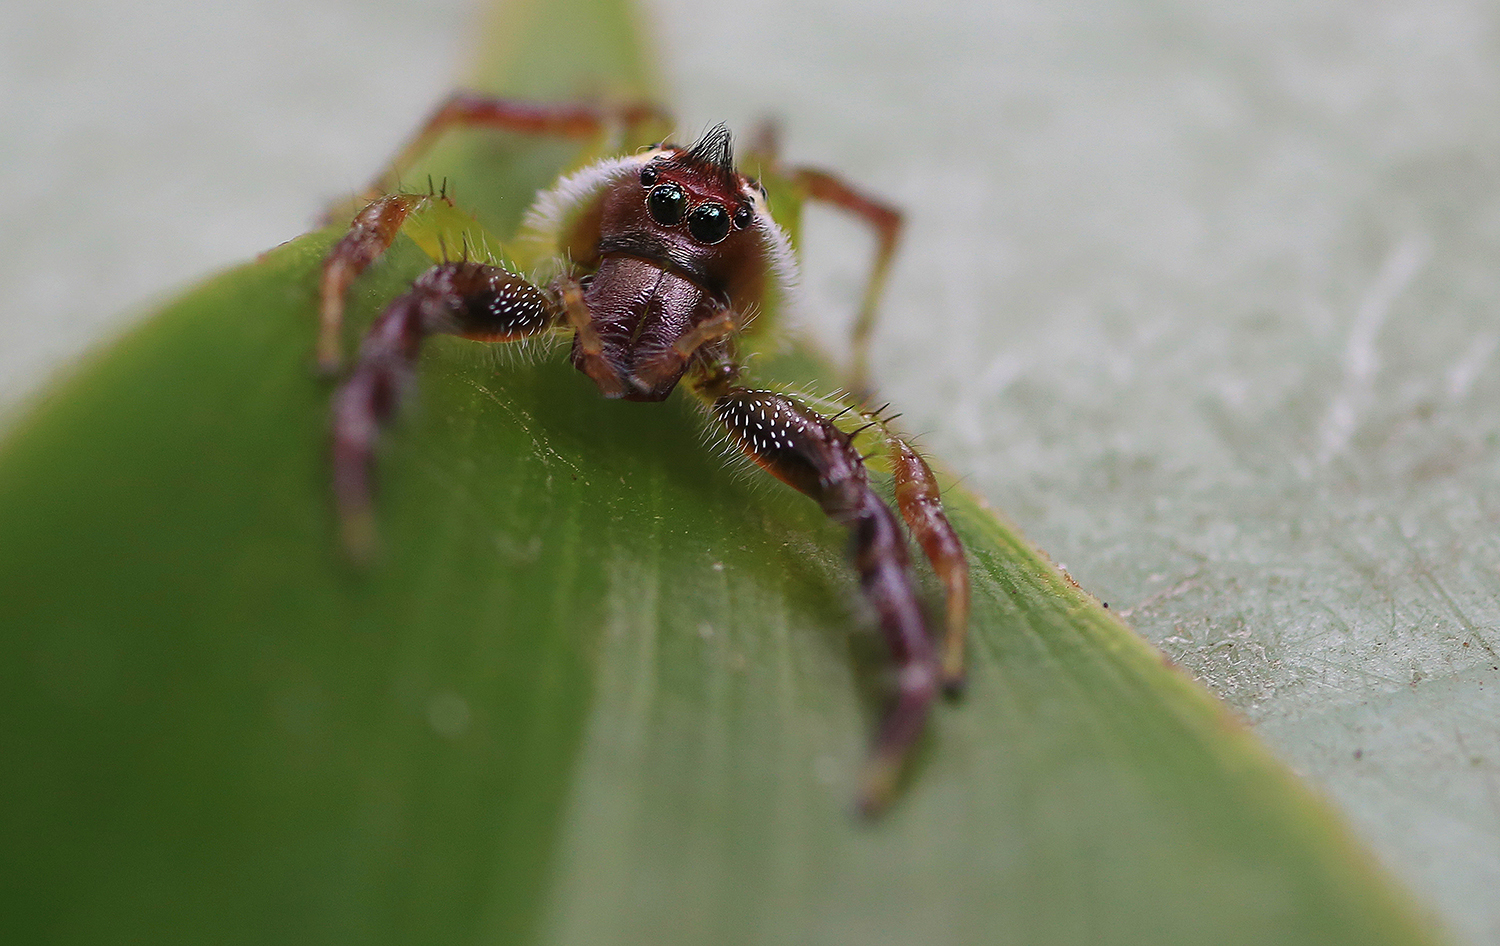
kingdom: Animalia
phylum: Arthropoda
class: Arachnida
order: Araneae
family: Salticidae
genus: Mopsus
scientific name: Mopsus mormon
